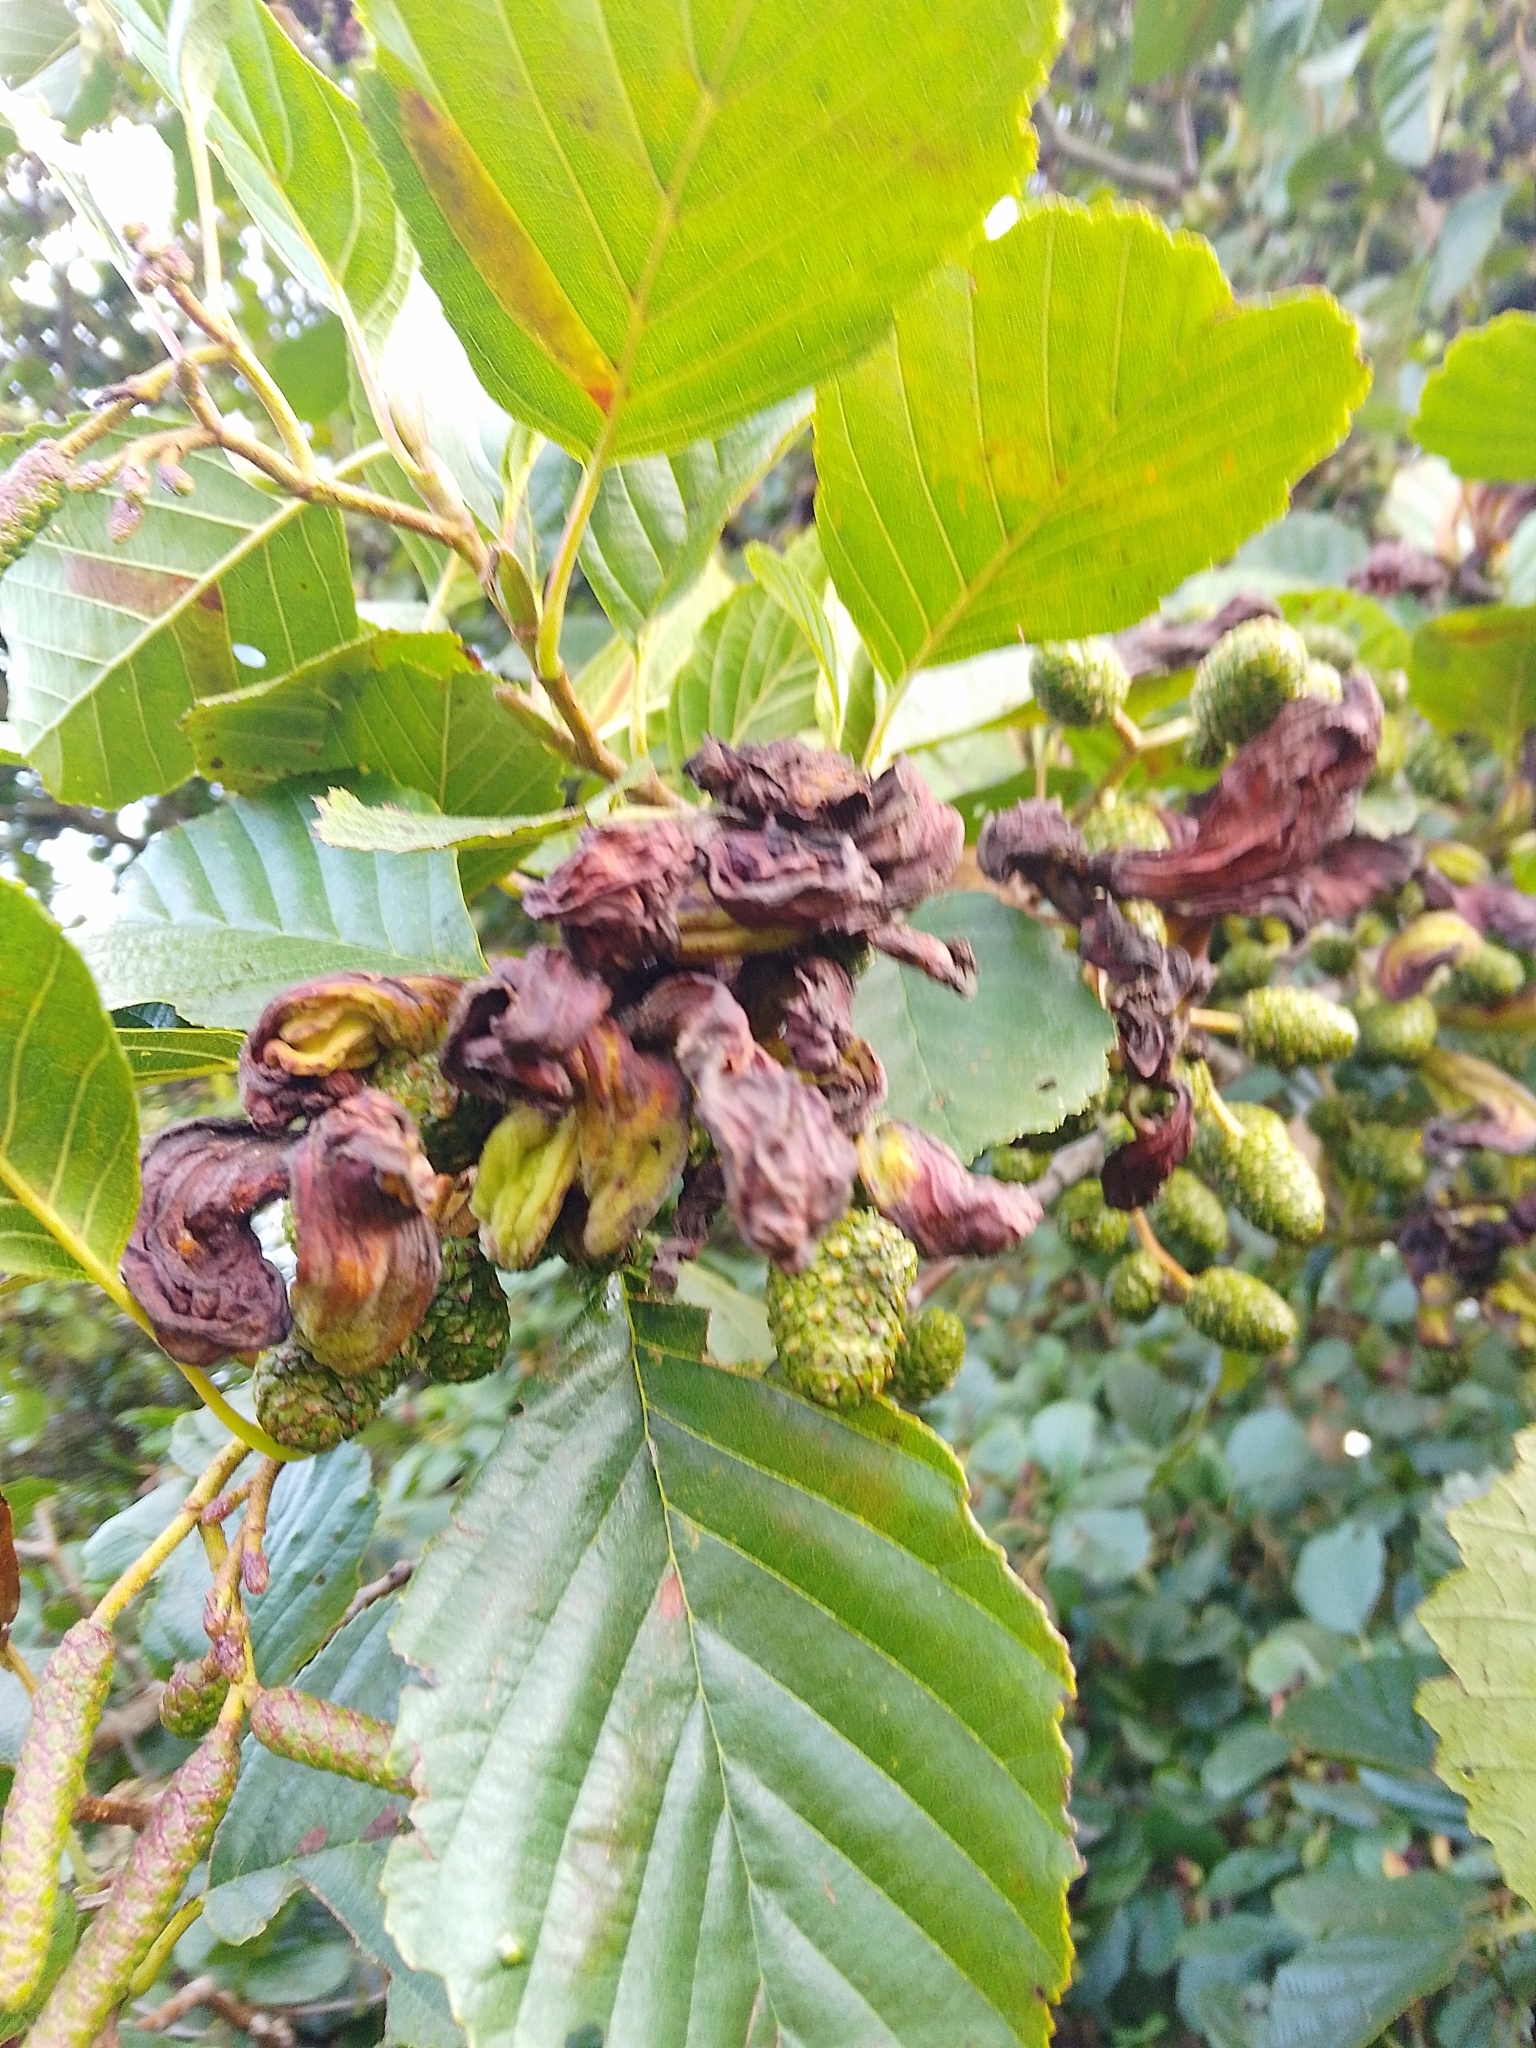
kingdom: Fungi
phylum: Ascomycota
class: Taphrinomycetes
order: Taphrinales
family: Taphrinaceae
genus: Taphrina
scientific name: Taphrina alni
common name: Alder tongue
